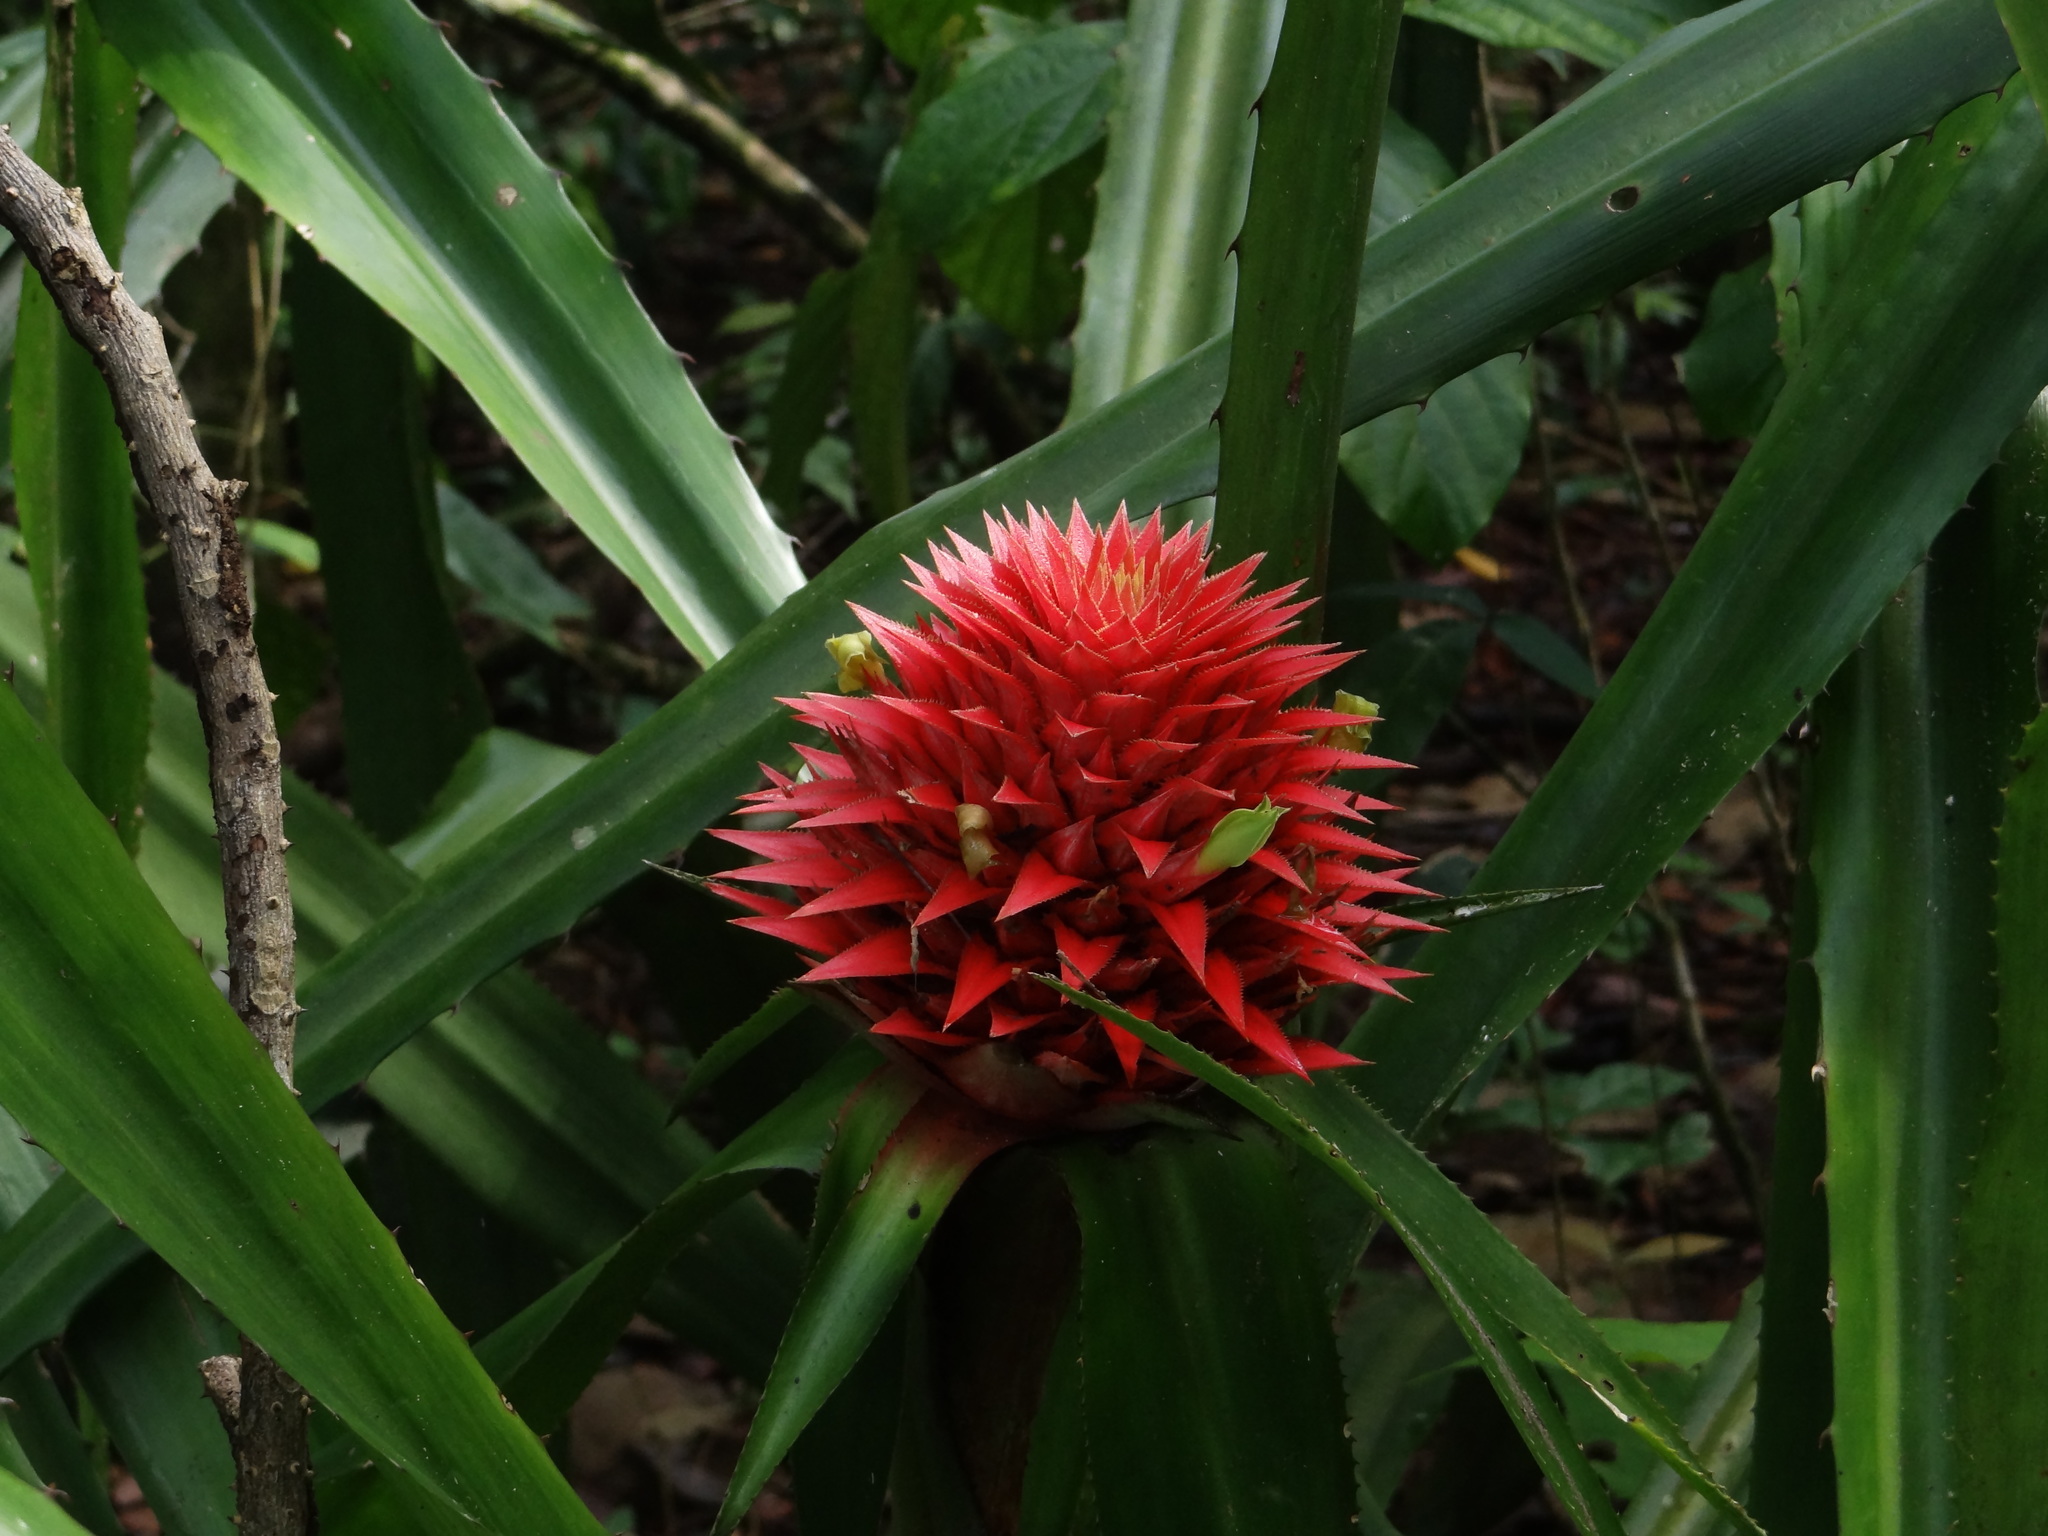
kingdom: Plantae
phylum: Tracheophyta
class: Liliopsida
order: Poales
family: Bromeliaceae
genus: Aechmea
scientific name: Aechmea magdalenae
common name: Arghan
